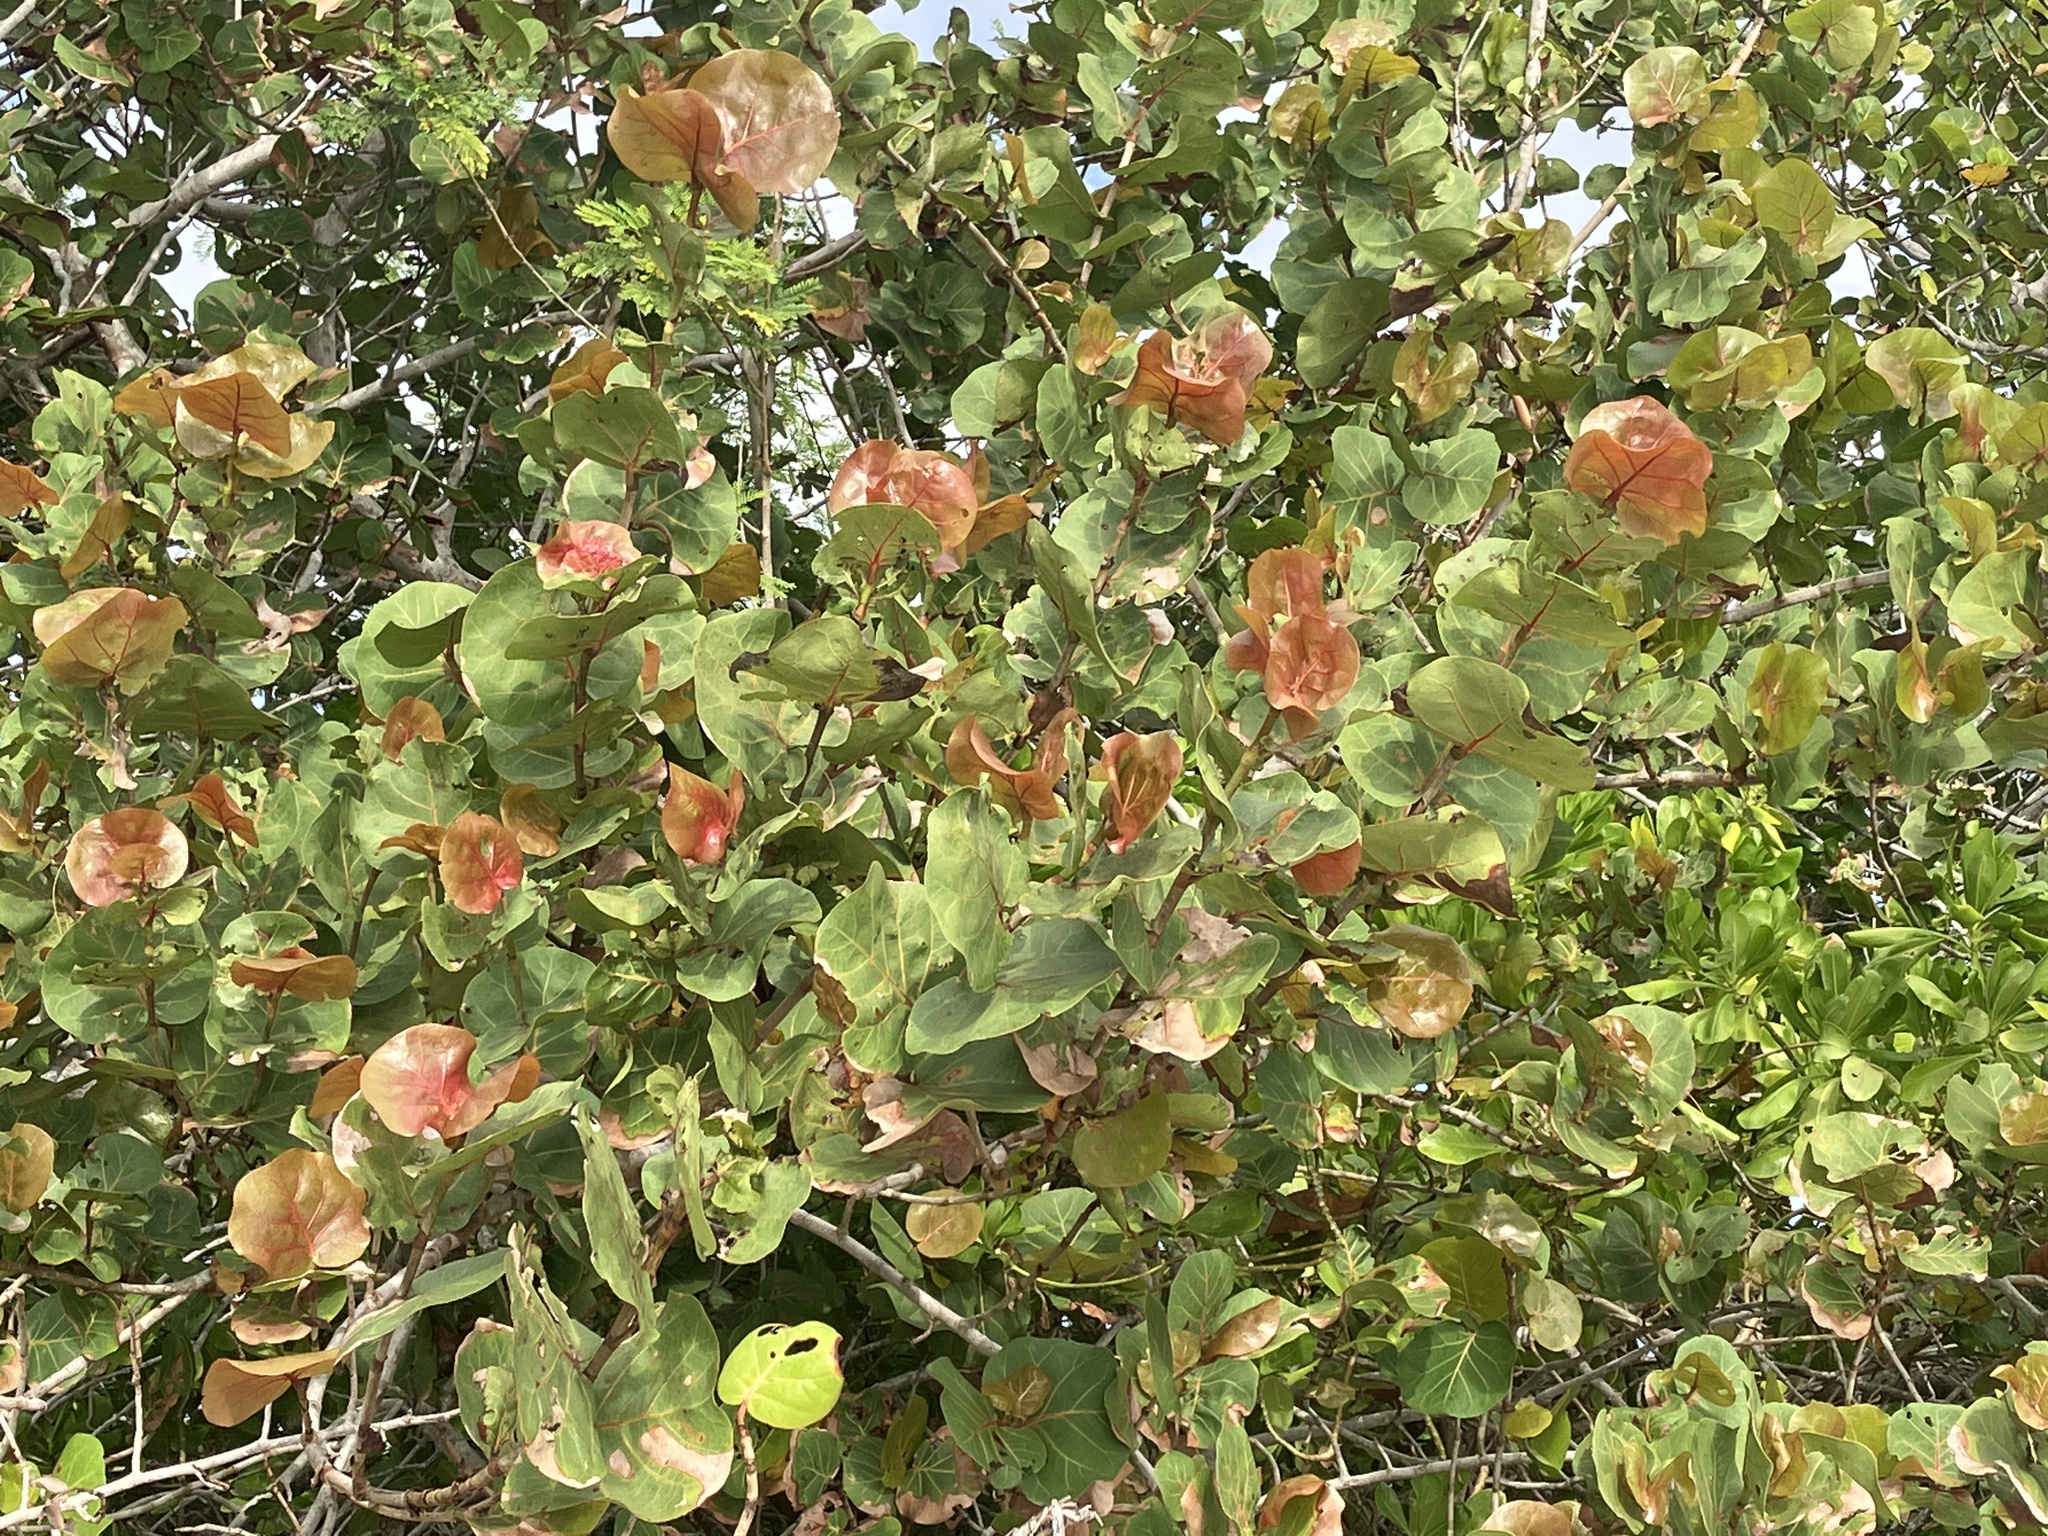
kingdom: Plantae
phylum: Tracheophyta
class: Magnoliopsida
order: Caryophyllales
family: Polygonaceae
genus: Coccoloba
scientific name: Coccoloba uvifera
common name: Seagrape
